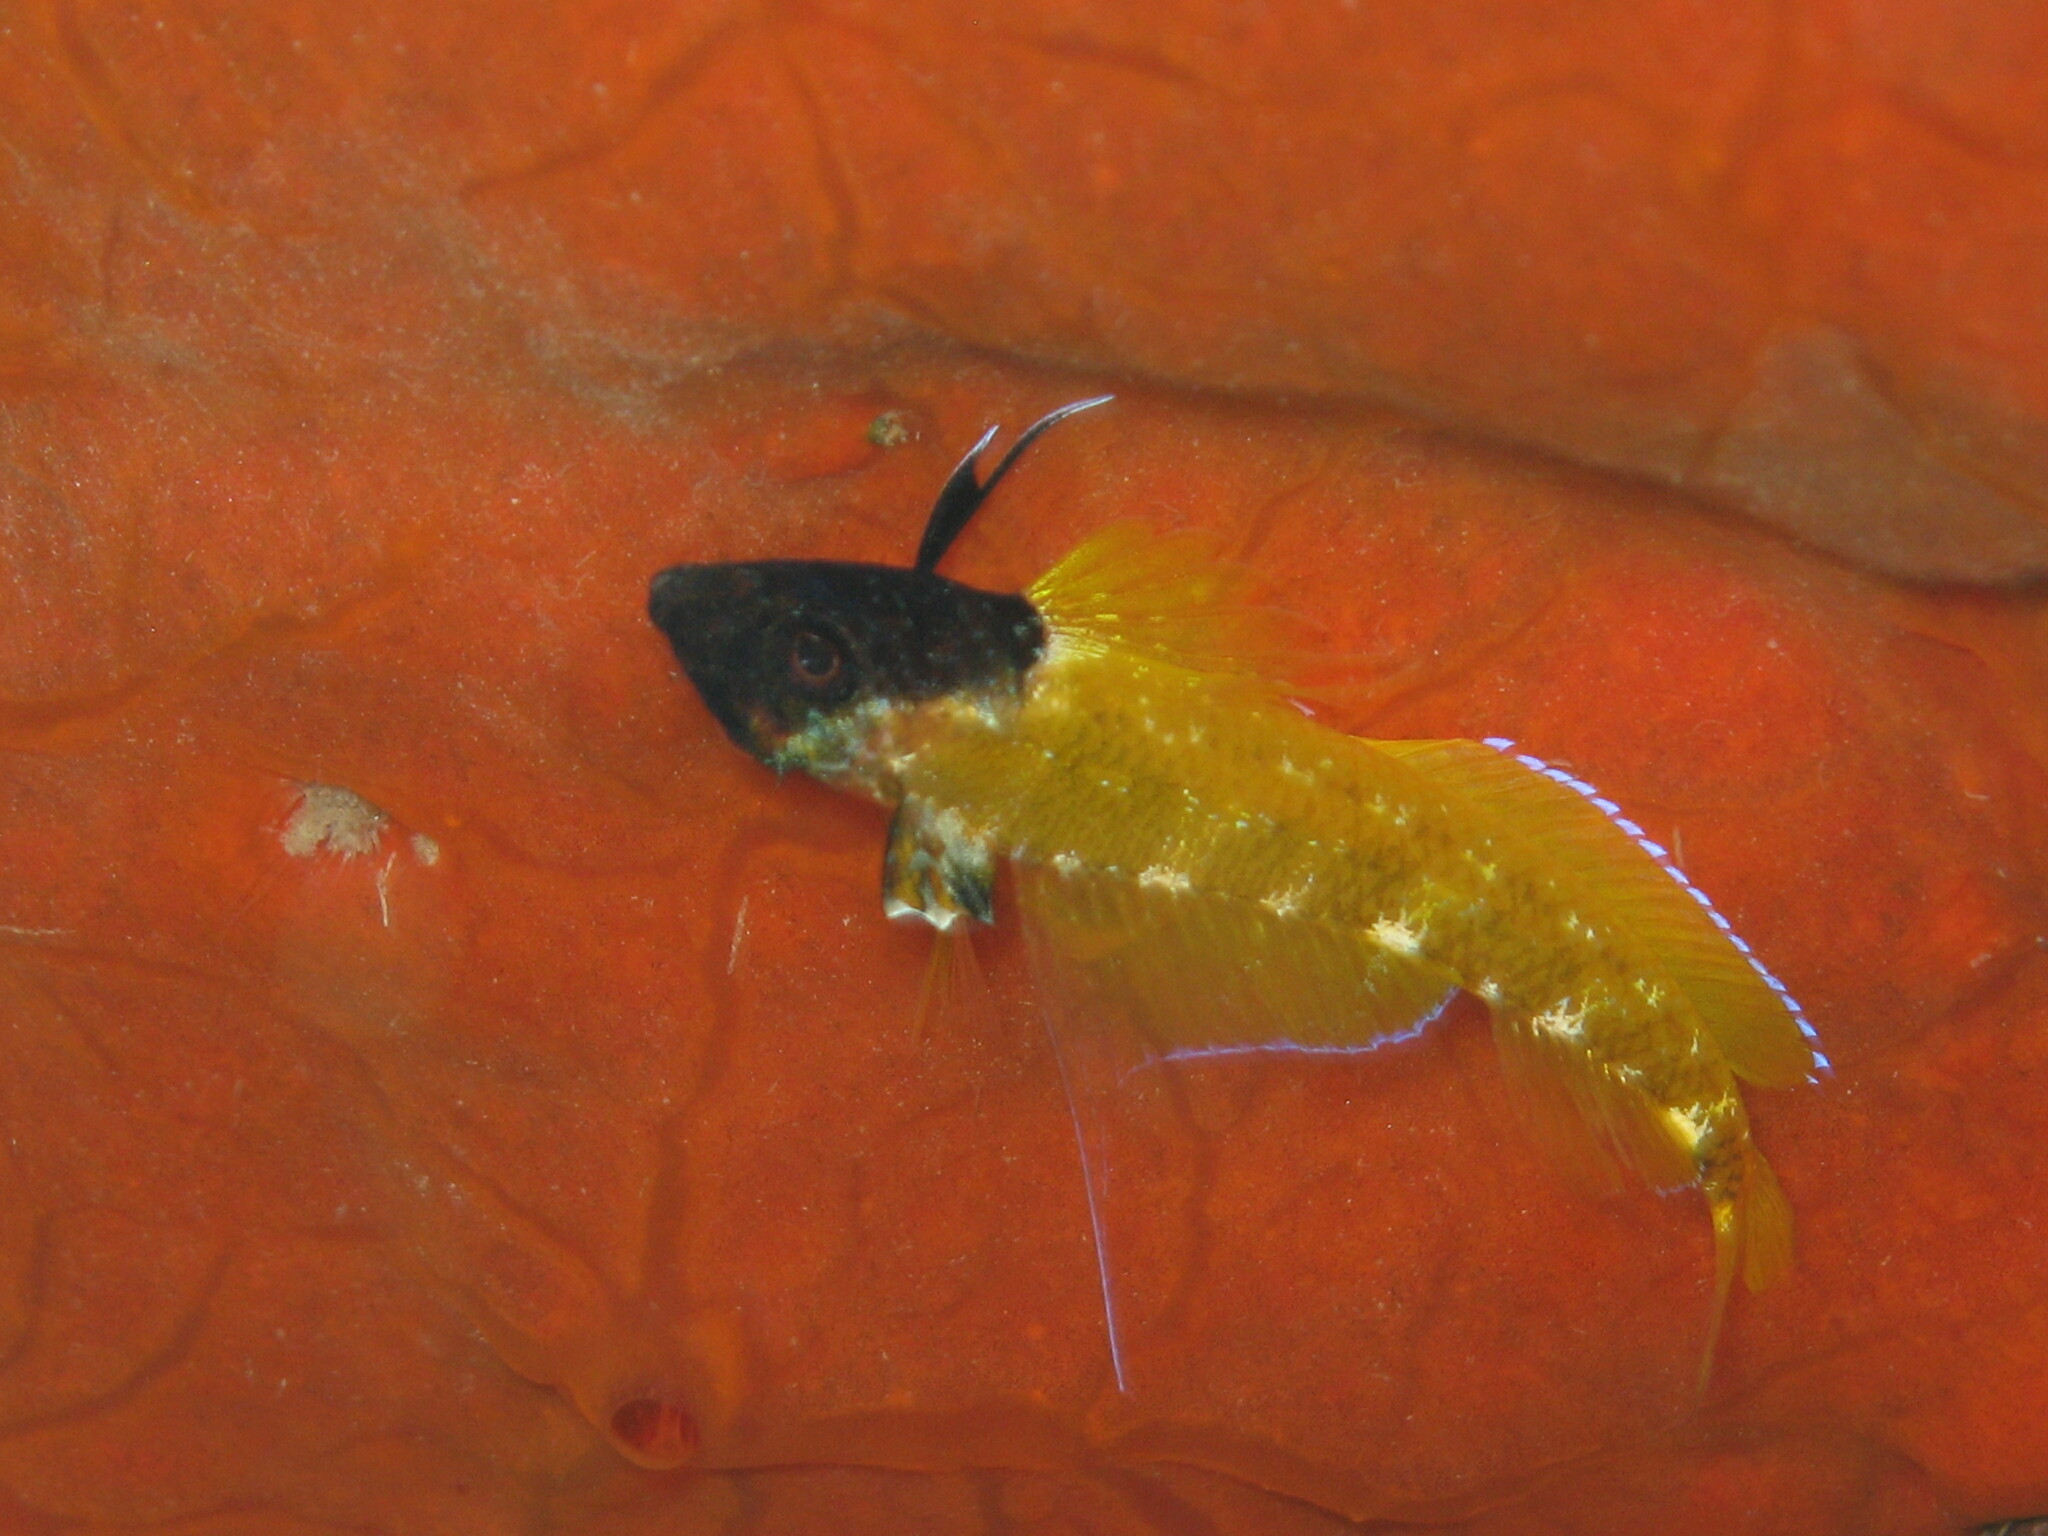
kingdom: Animalia
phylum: Chordata
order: Perciformes
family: Tripterygiidae
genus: Tripterygion
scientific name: Tripterygion delaisi
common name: Black-face blenny
